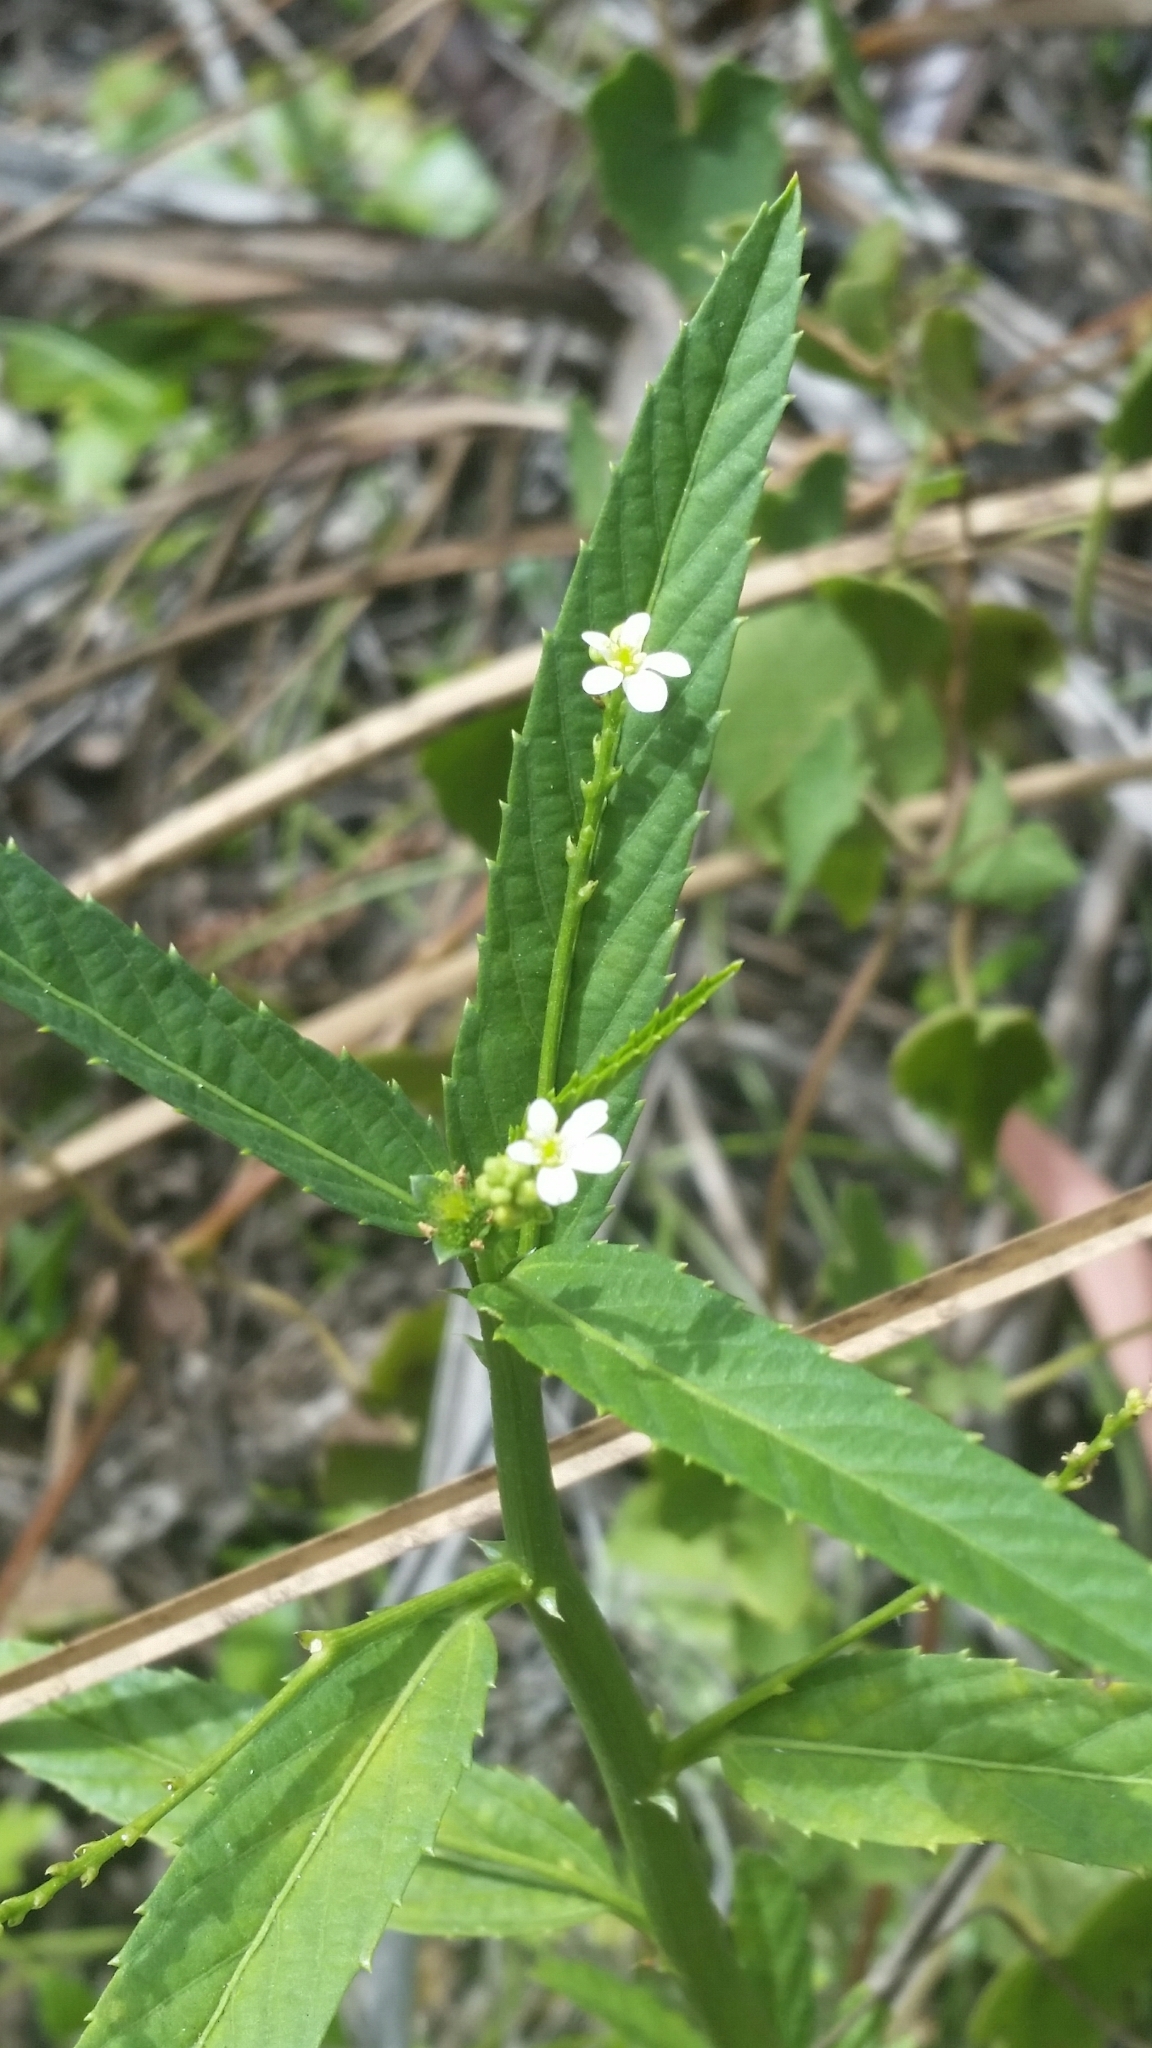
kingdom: Plantae
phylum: Tracheophyta
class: Magnoliopsida
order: Malpighiales
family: Euphorbiaceae
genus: Caperonia
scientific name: Caperonia castaneifolia
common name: Chestnutleaf false croton
